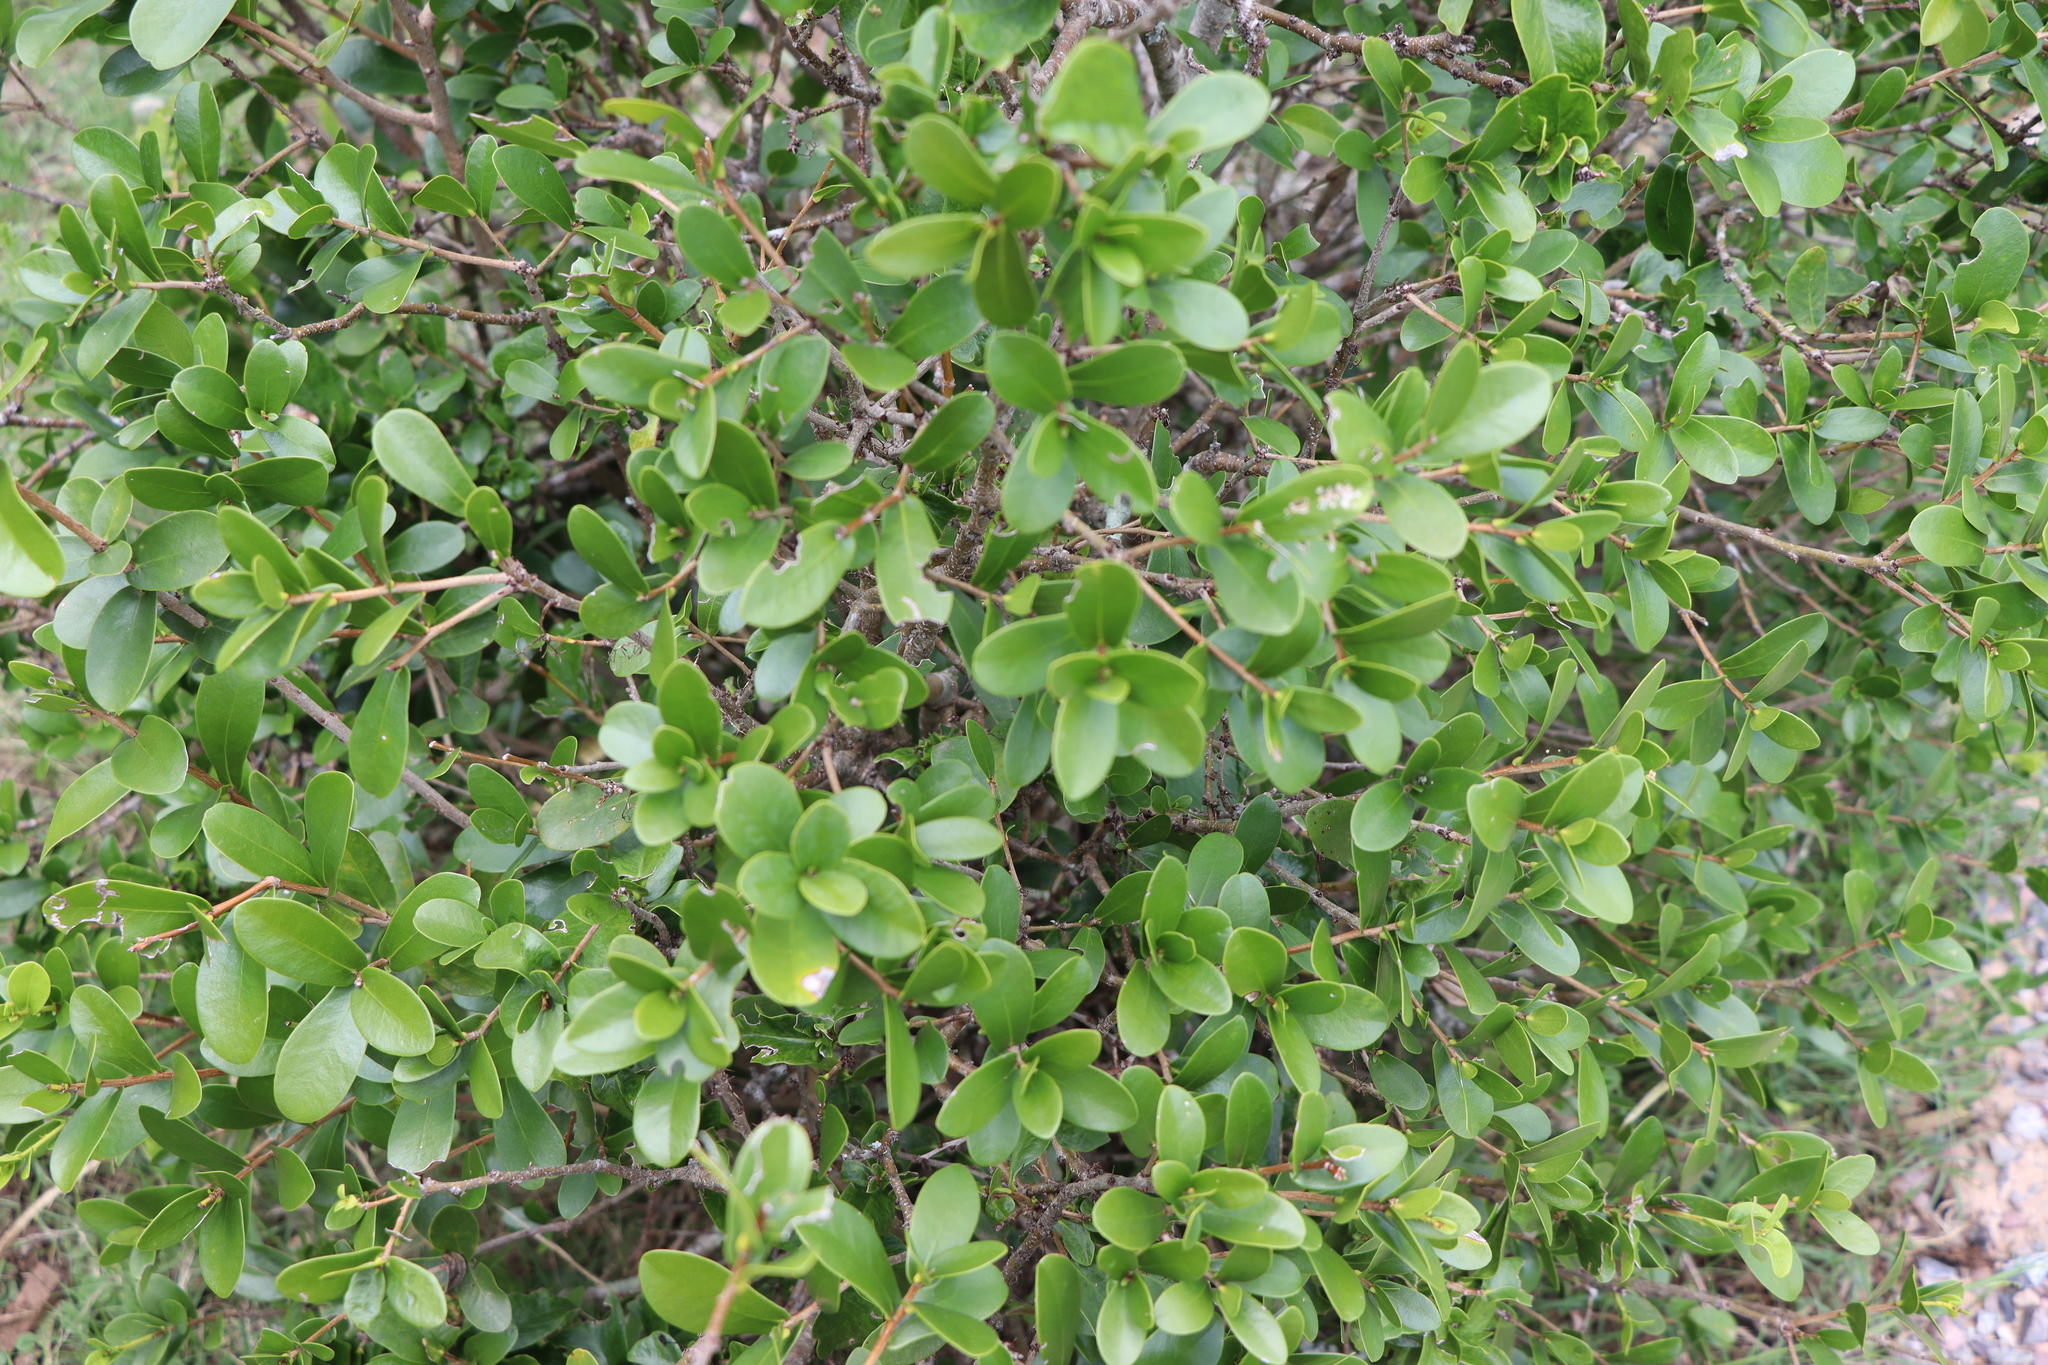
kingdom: Plantae
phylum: Tracheophyta
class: Magnoliopsida
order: Malvales
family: Thymelaeaceae
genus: Daphnopsis
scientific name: Daphnopsis racemosa
